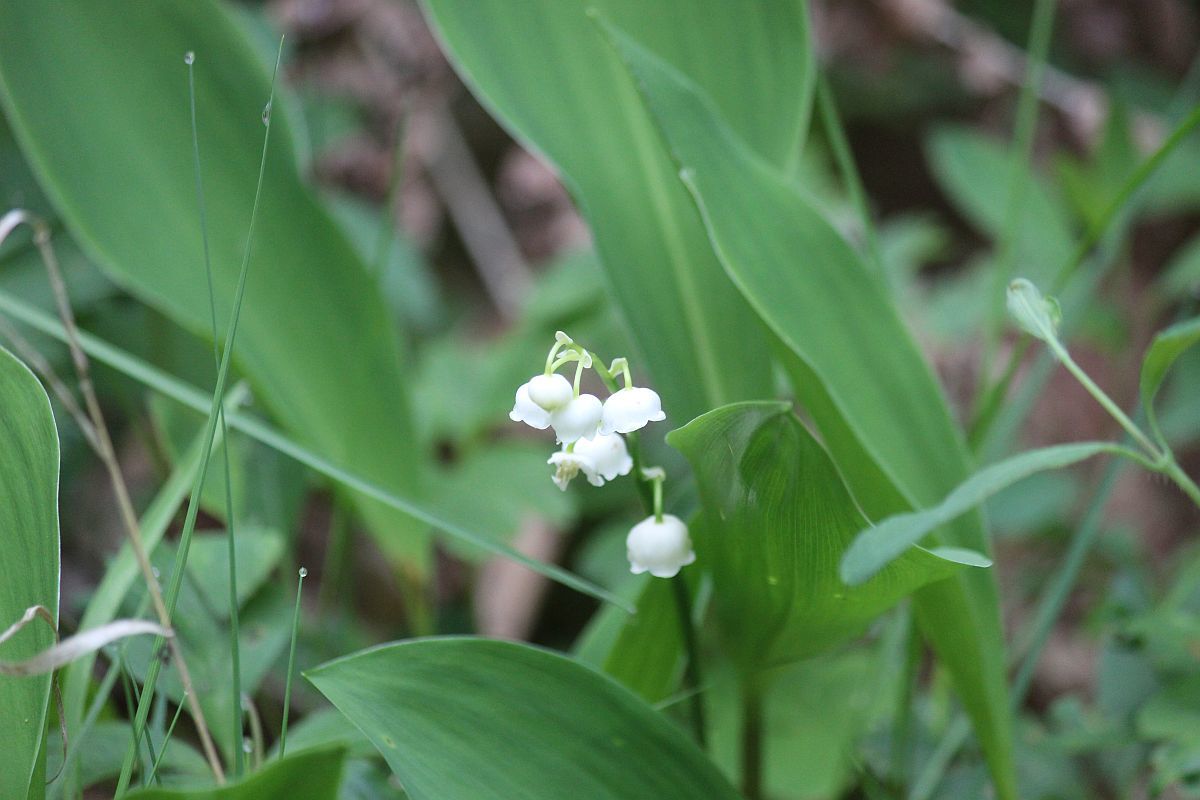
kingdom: Plantae
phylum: Tracheophyta
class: Liliopsida
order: Asparagales
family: Asparagaceae
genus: Convallaria
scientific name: Convallaria majalis
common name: Lily-of-the-valley
